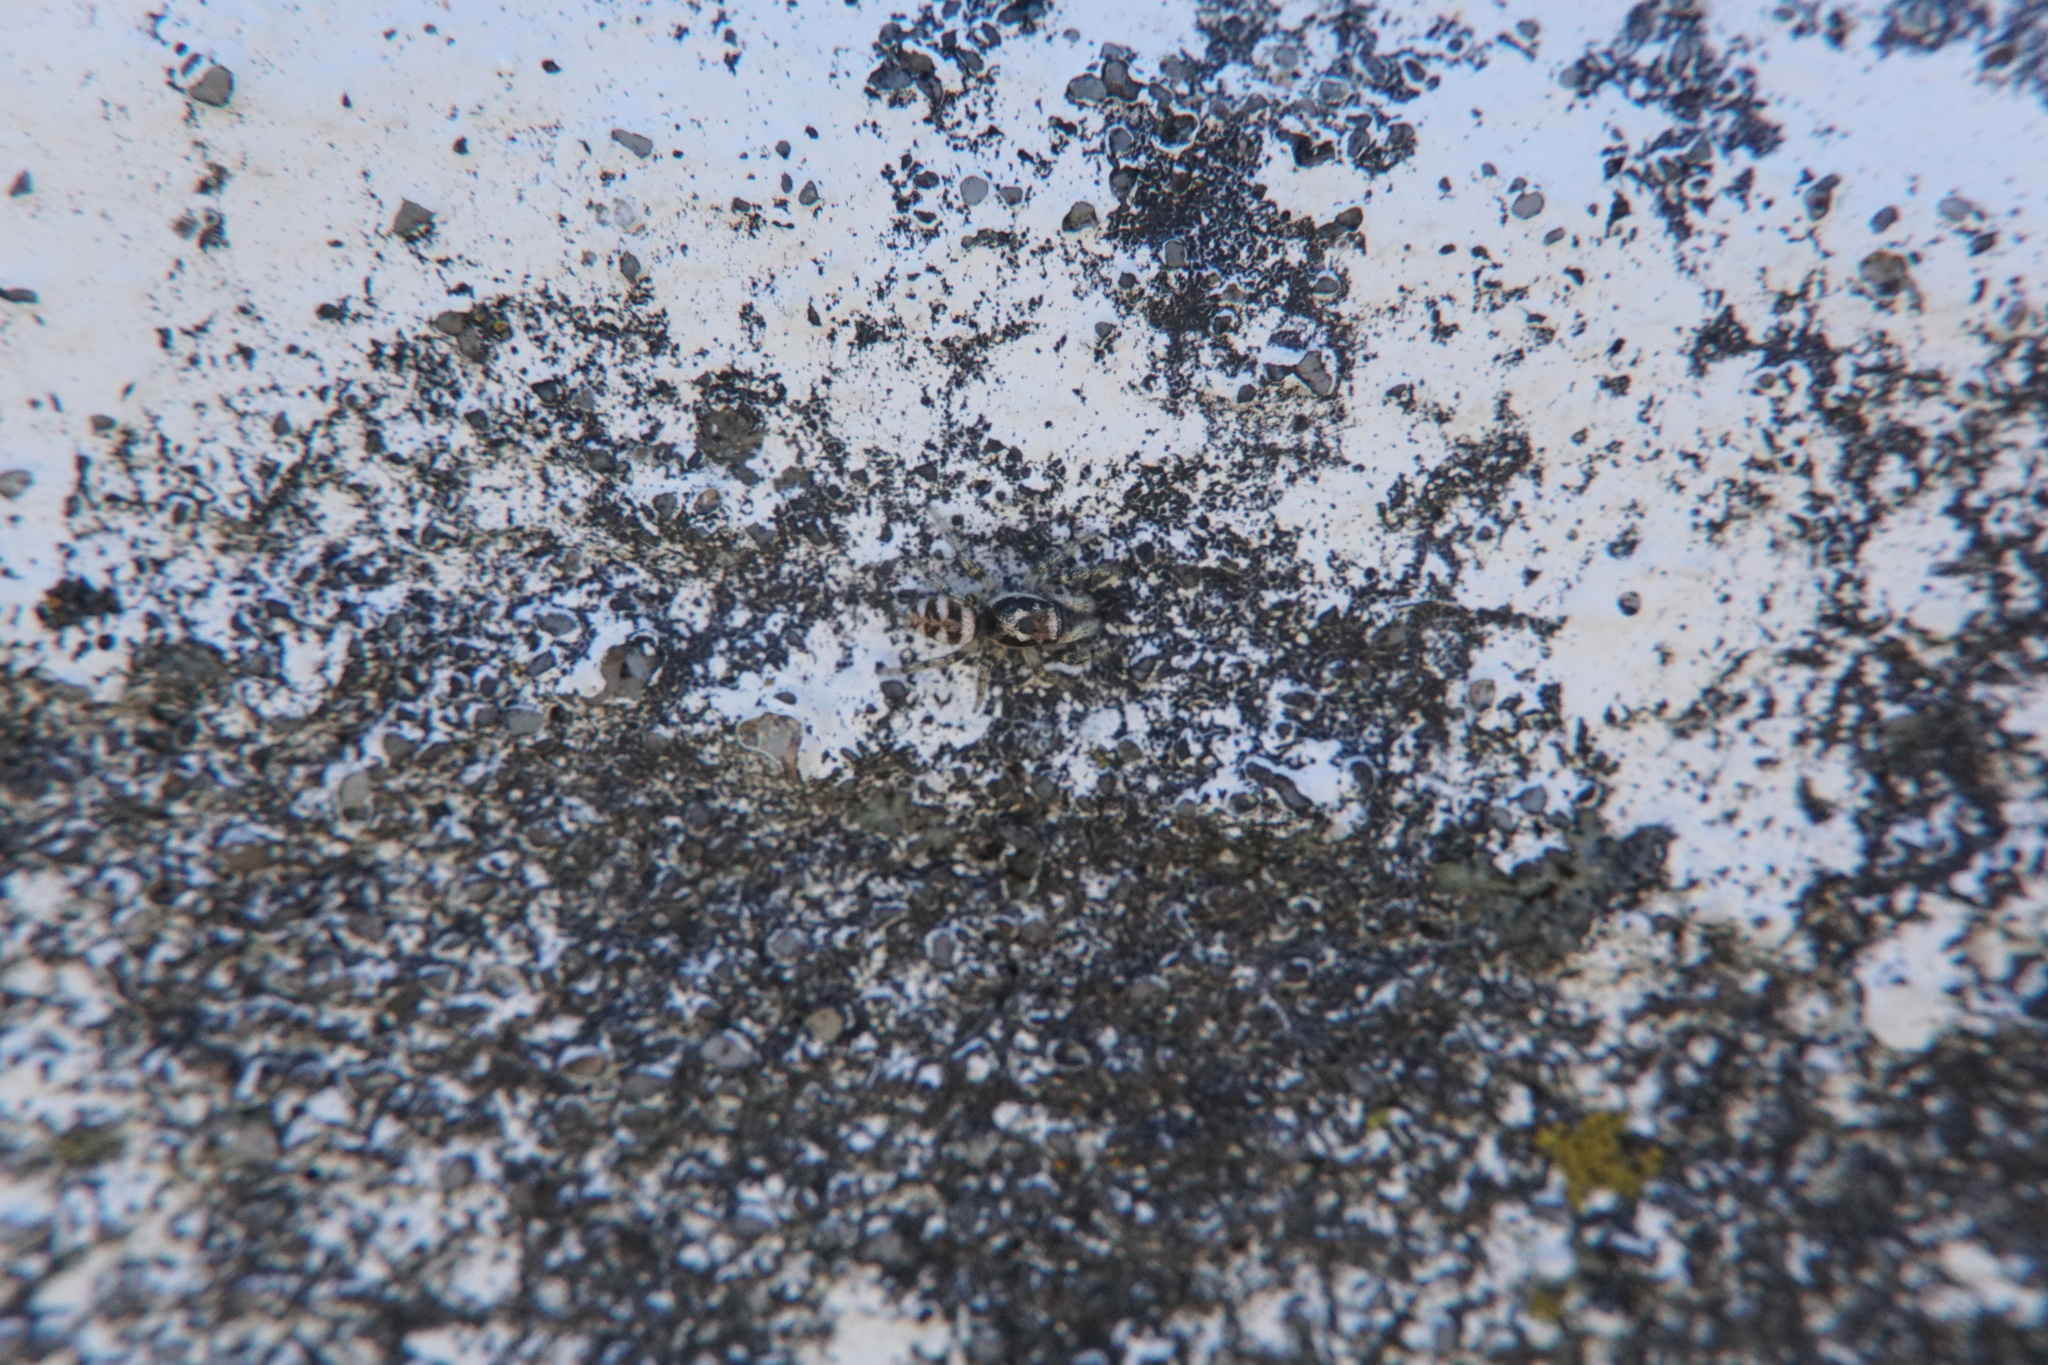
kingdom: Animalia
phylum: Arthropoda
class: Arachnida
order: Araneae
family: Salticidae
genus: Salticus
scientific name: Salticus scenicus
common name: Zebra jumper
